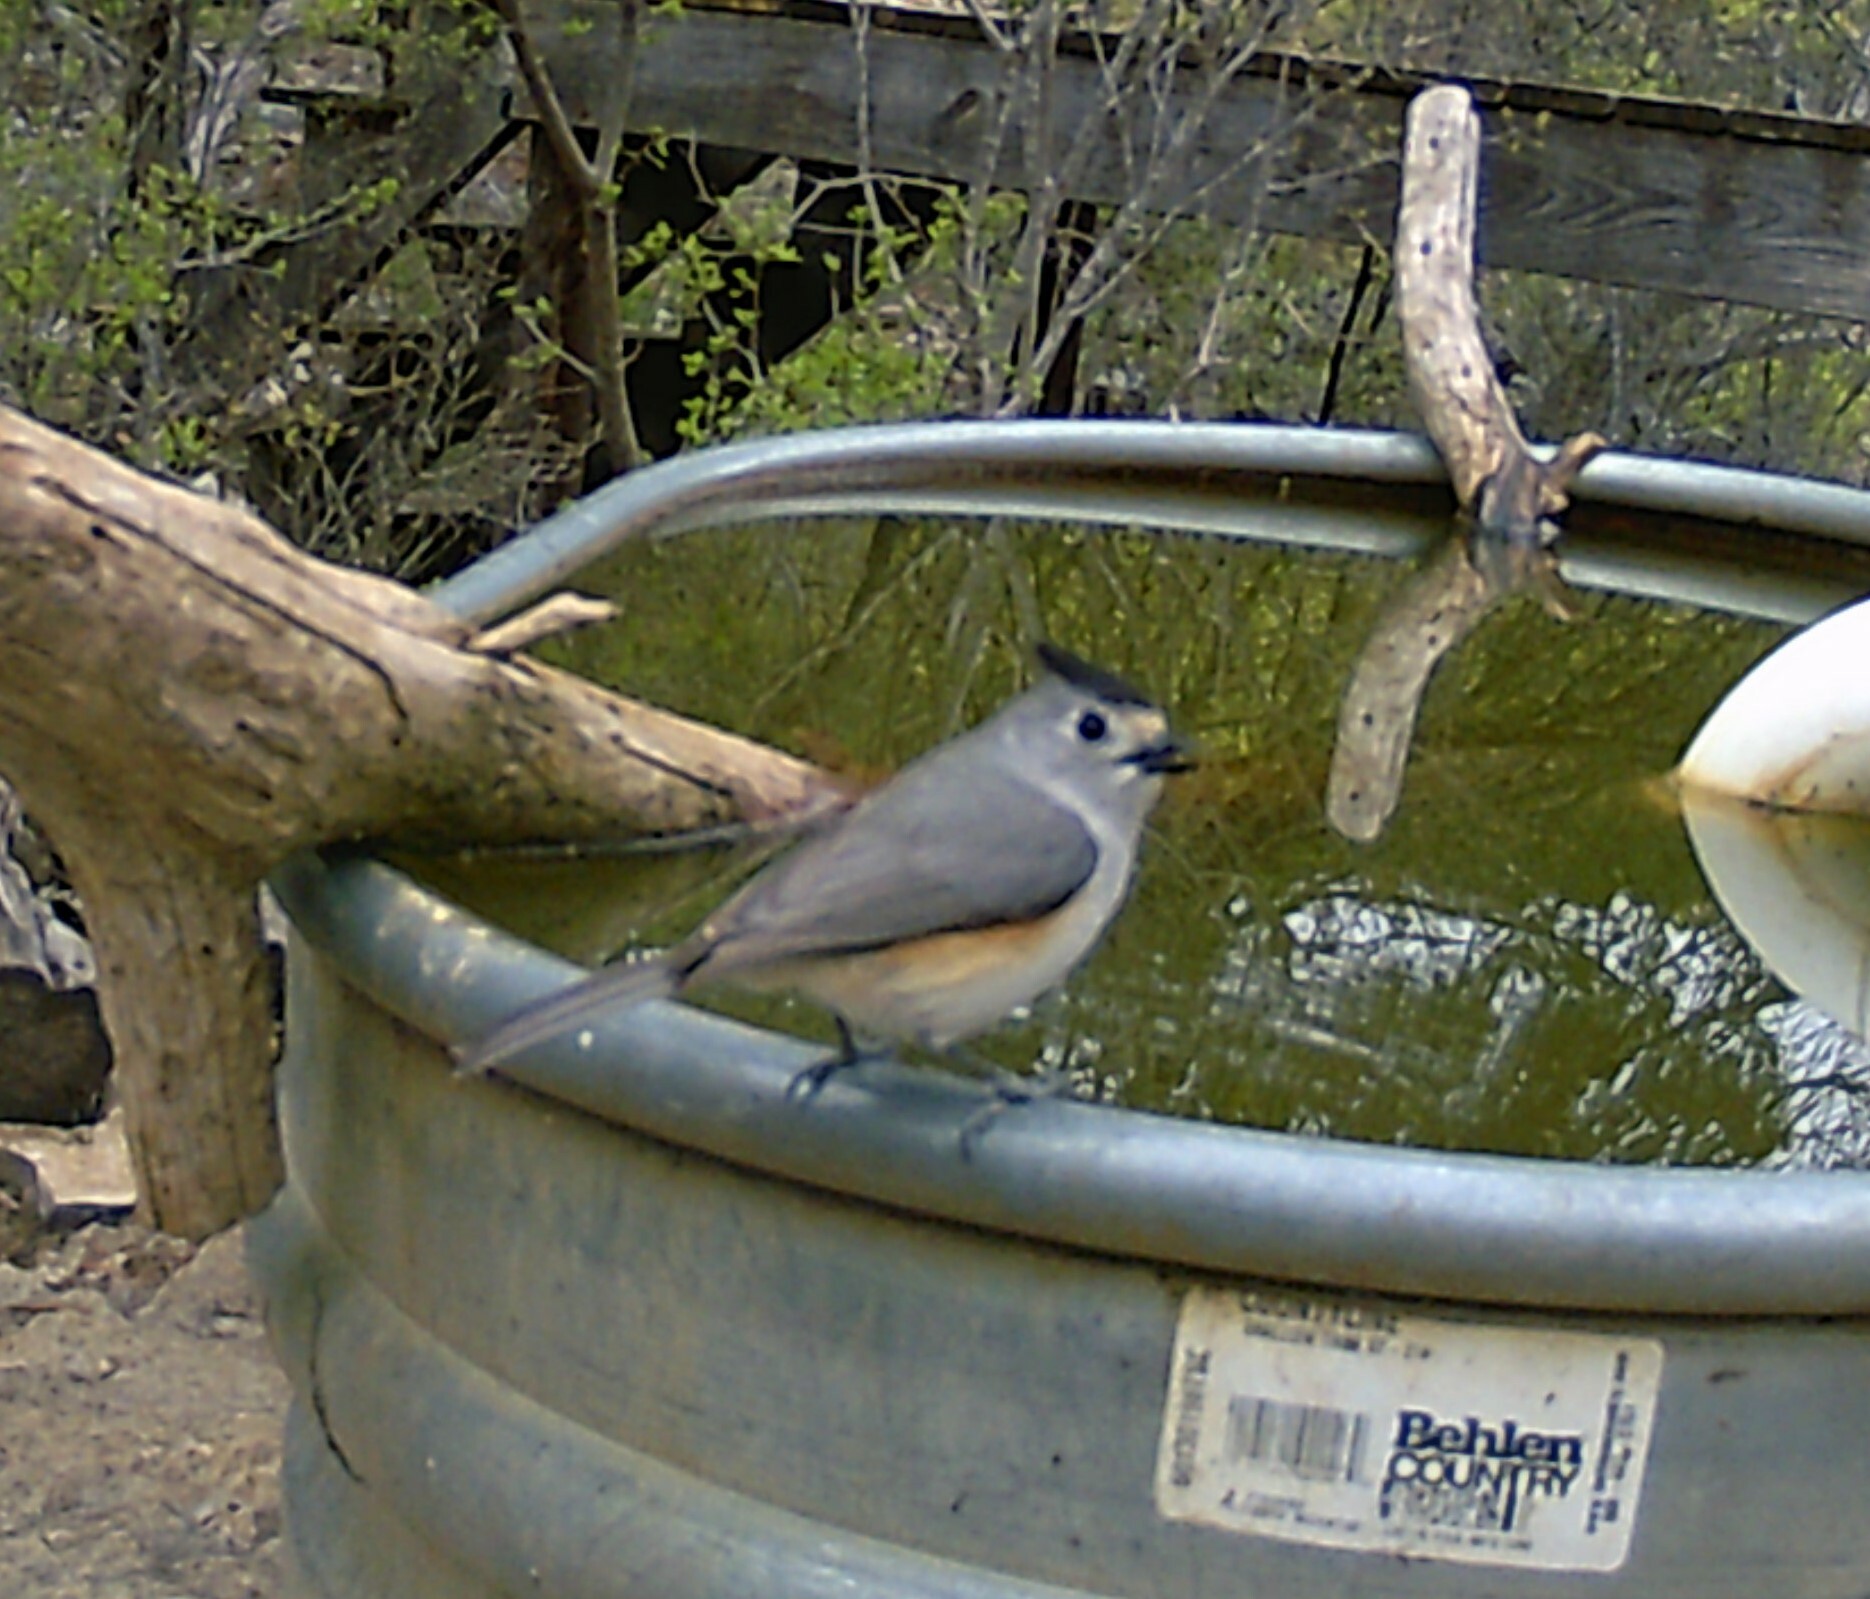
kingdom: Animalia
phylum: Chordata
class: Aves
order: Passeriformes
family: Paridae
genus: Baeolophus
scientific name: Baeolophus atricristatus
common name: Black-crested titmouse
